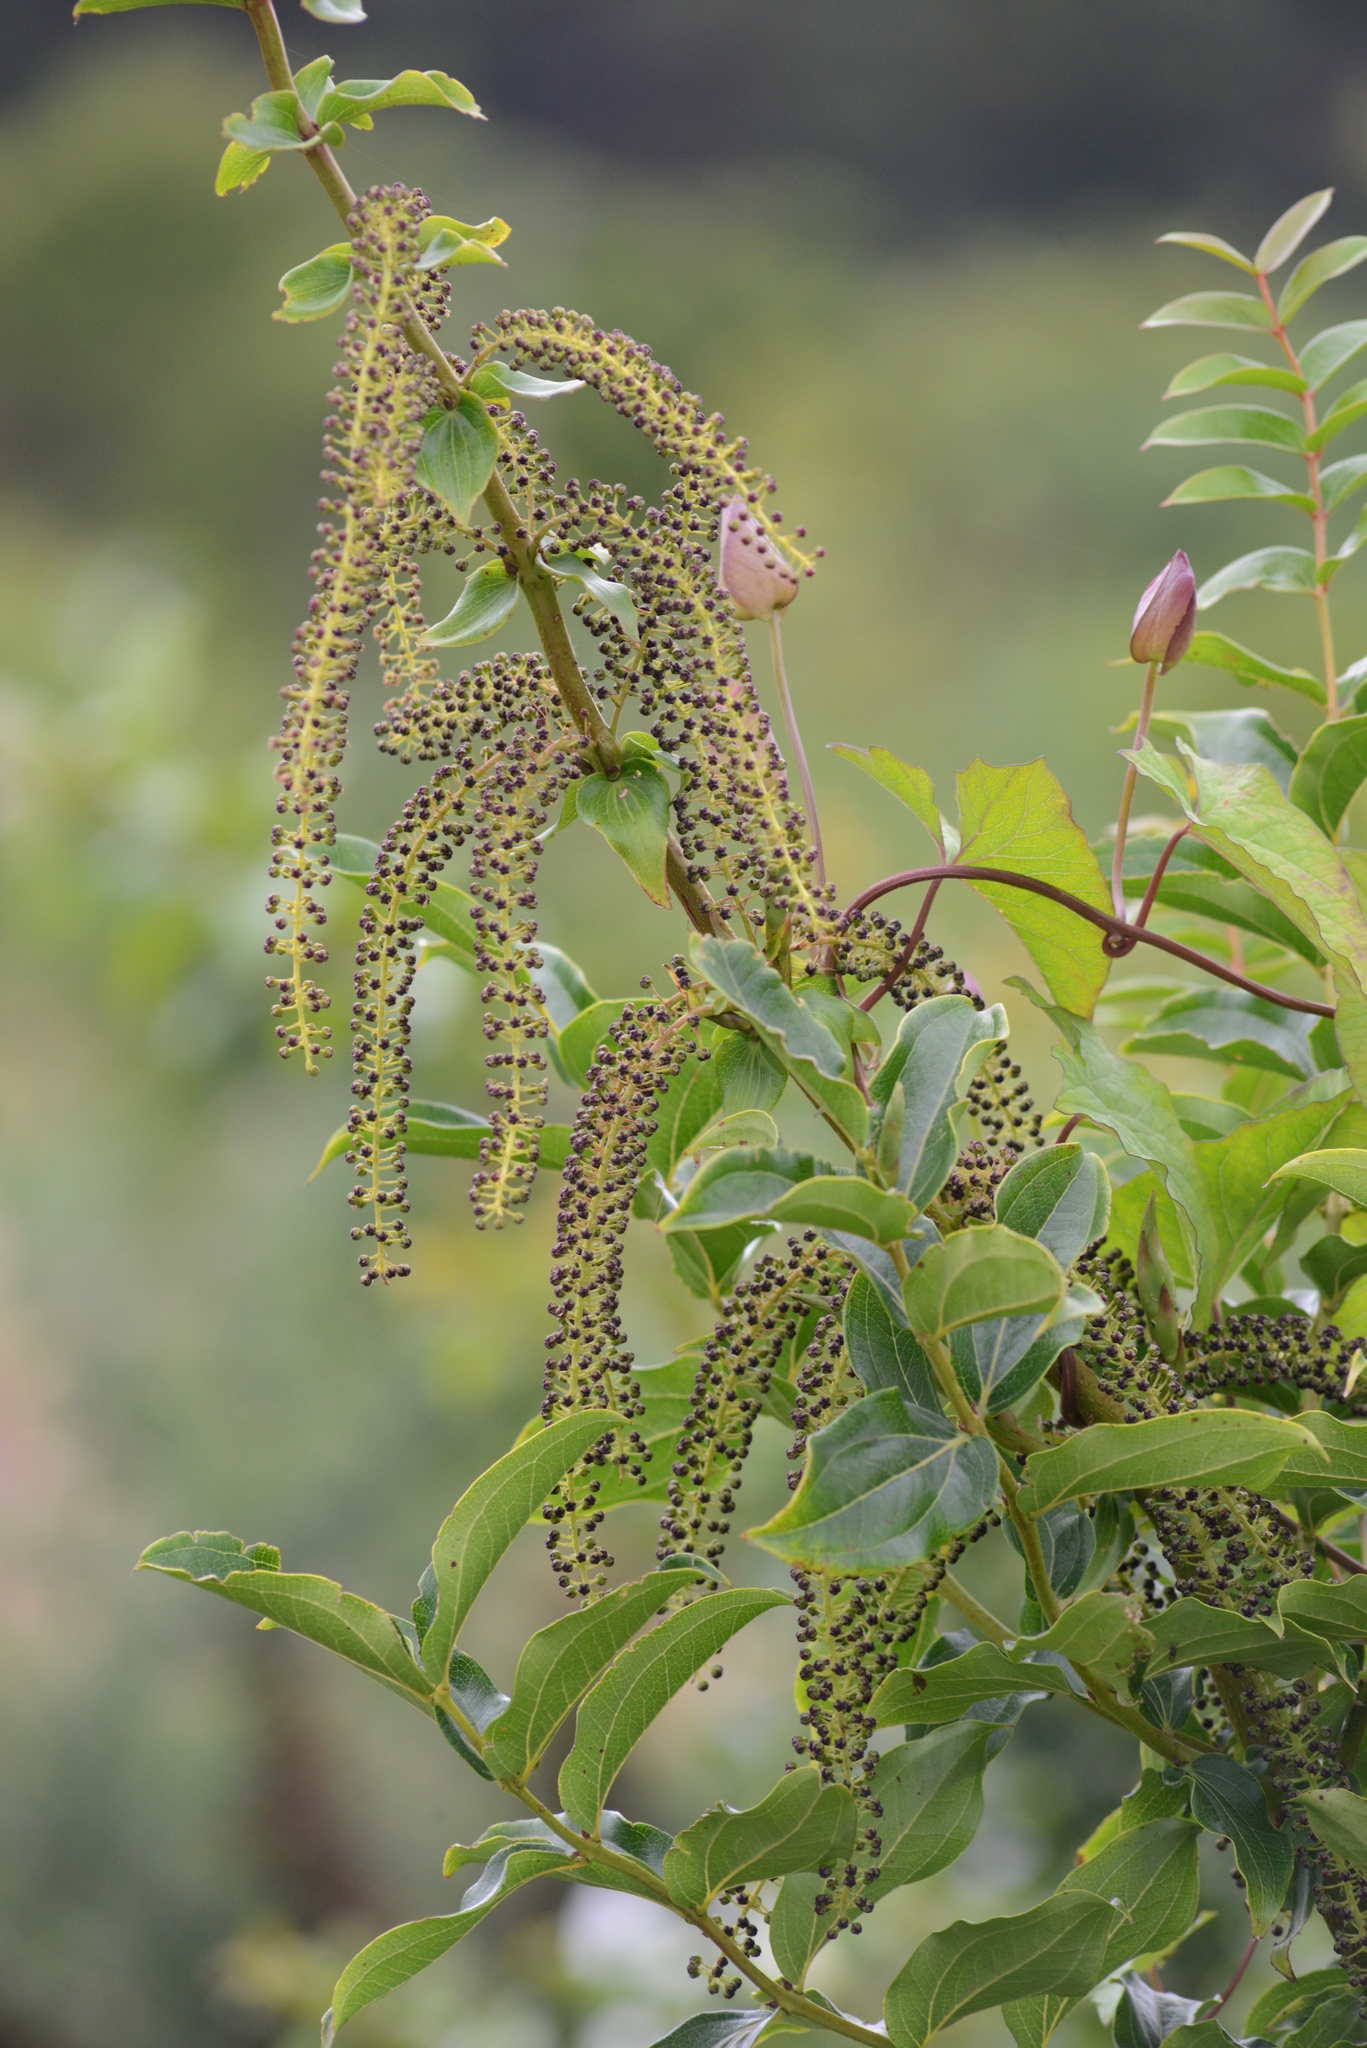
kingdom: Plantae
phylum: Tracheophyta
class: Magnoliopsida
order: Cucurbitales
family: Coriariaceae
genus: Coriaria
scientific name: Coriaria arborea
